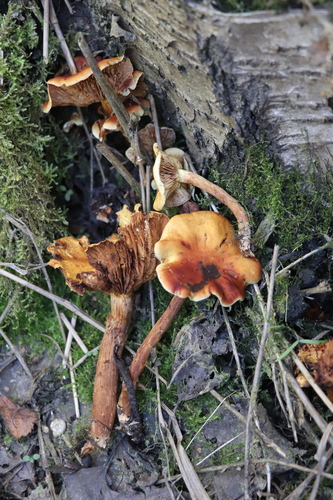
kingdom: Fungi
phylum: Basidiomycota
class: Agaricomycetes
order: Agaricales
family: Hymenogastraceae
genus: Flammula
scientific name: Flammula alnicola
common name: Alder scalycap
